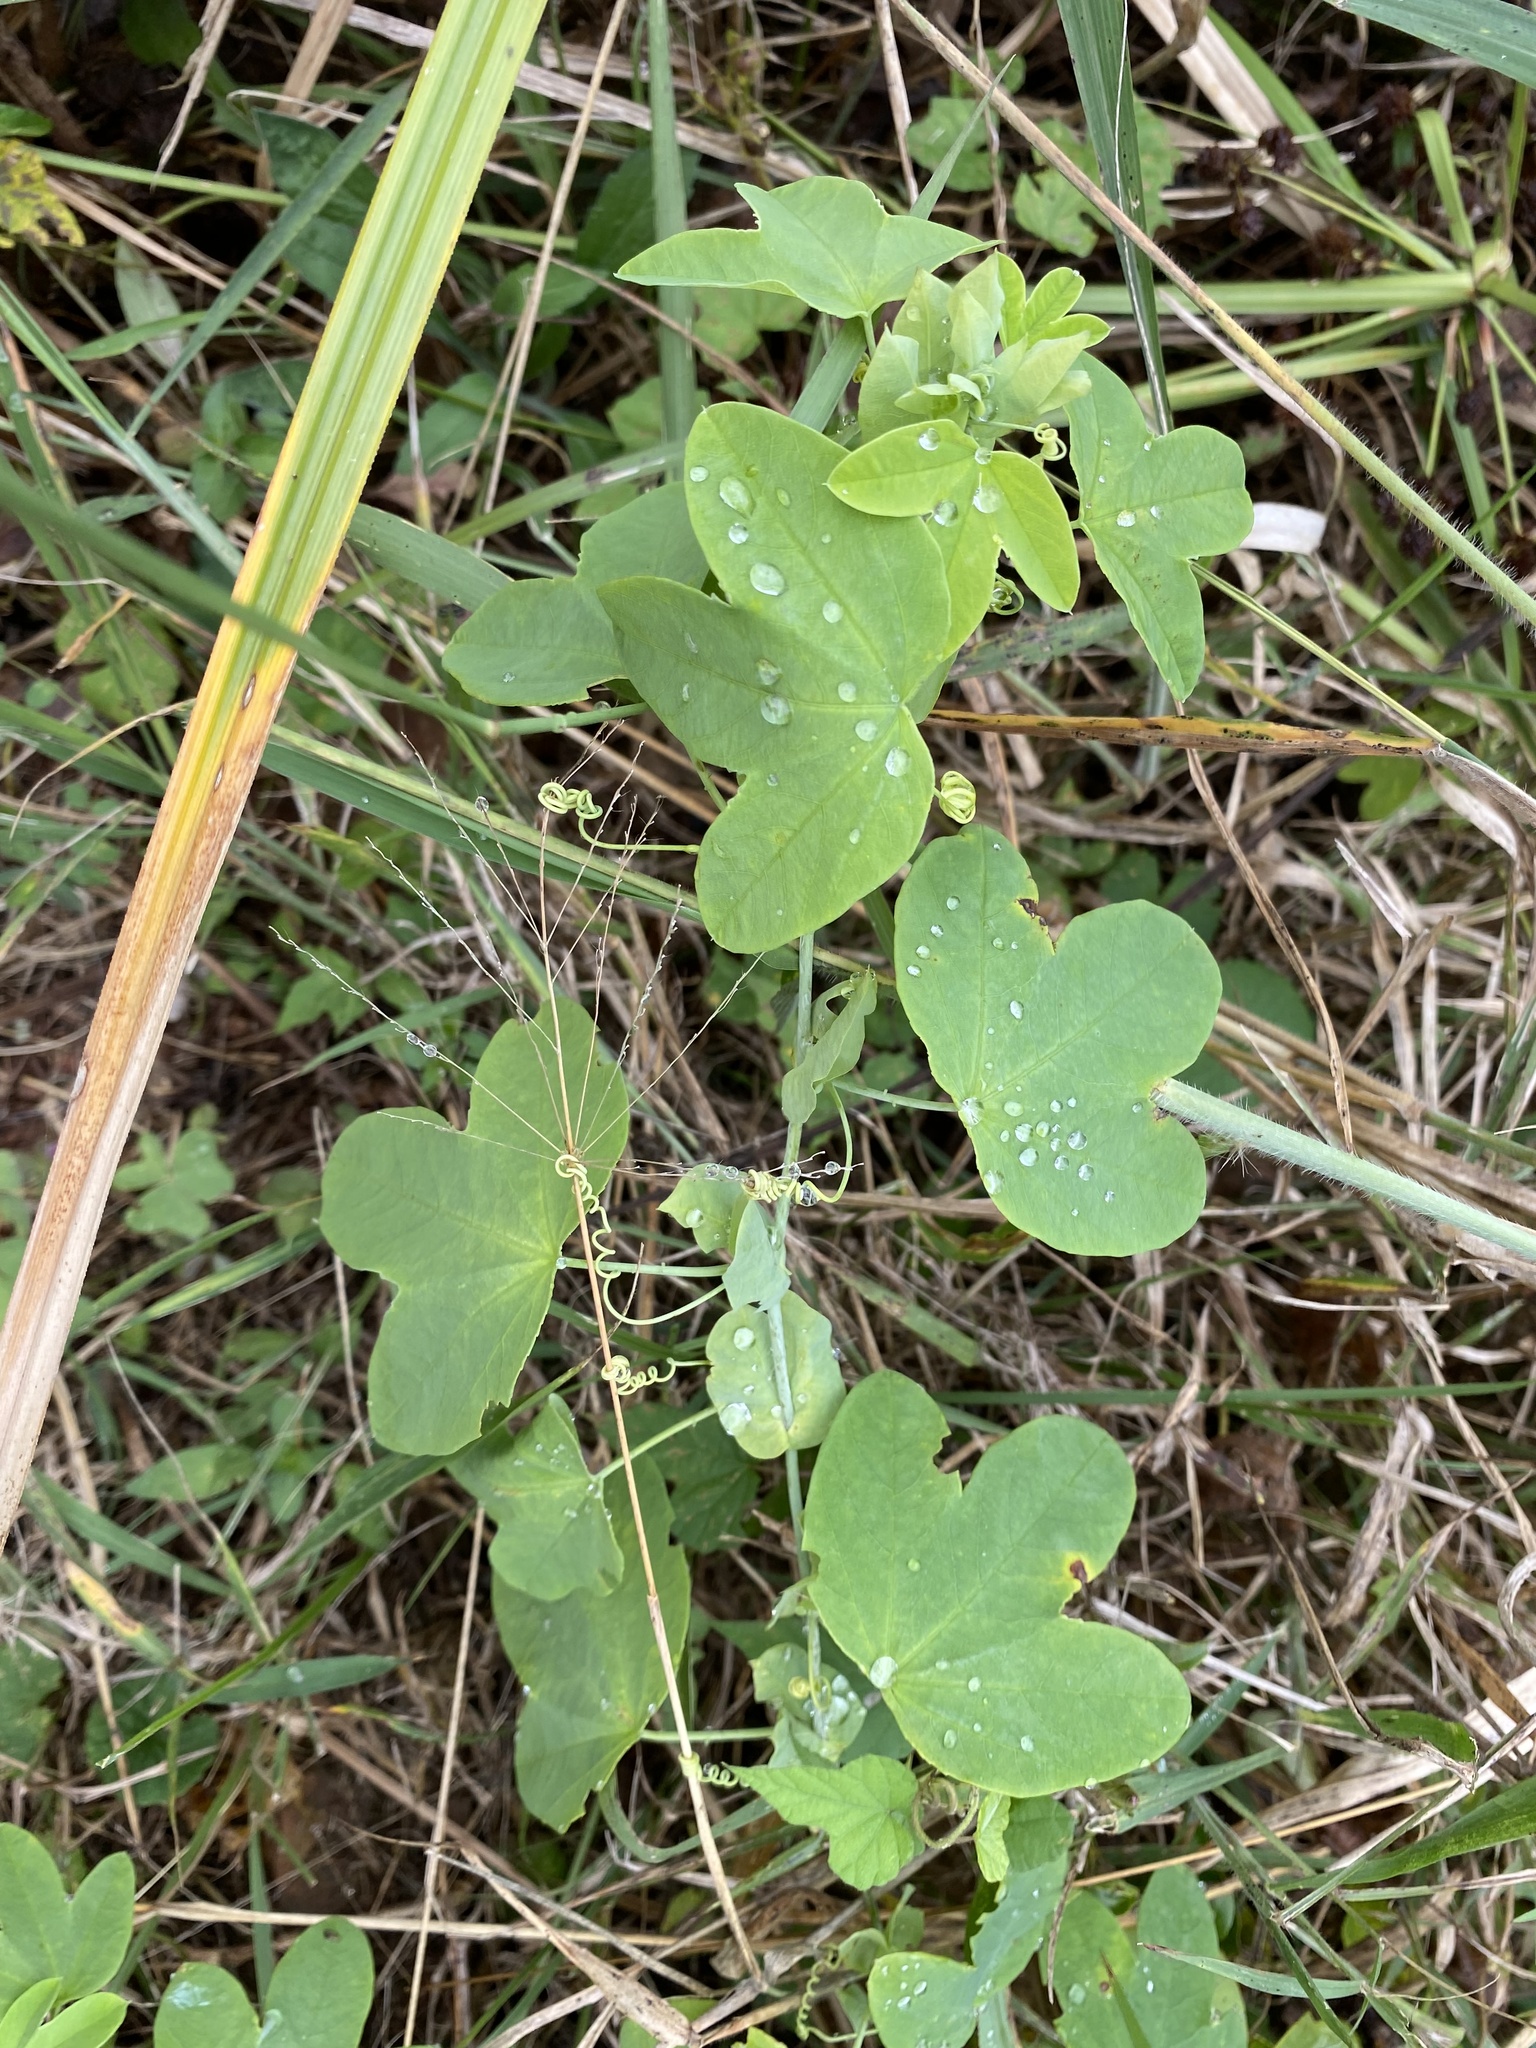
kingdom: Plantae
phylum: Tracheophyta
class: Magnoliopsida
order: Malpighiales
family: Passifloraceae
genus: Passiflora
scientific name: Passiflora subpeltata
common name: White passionflower
